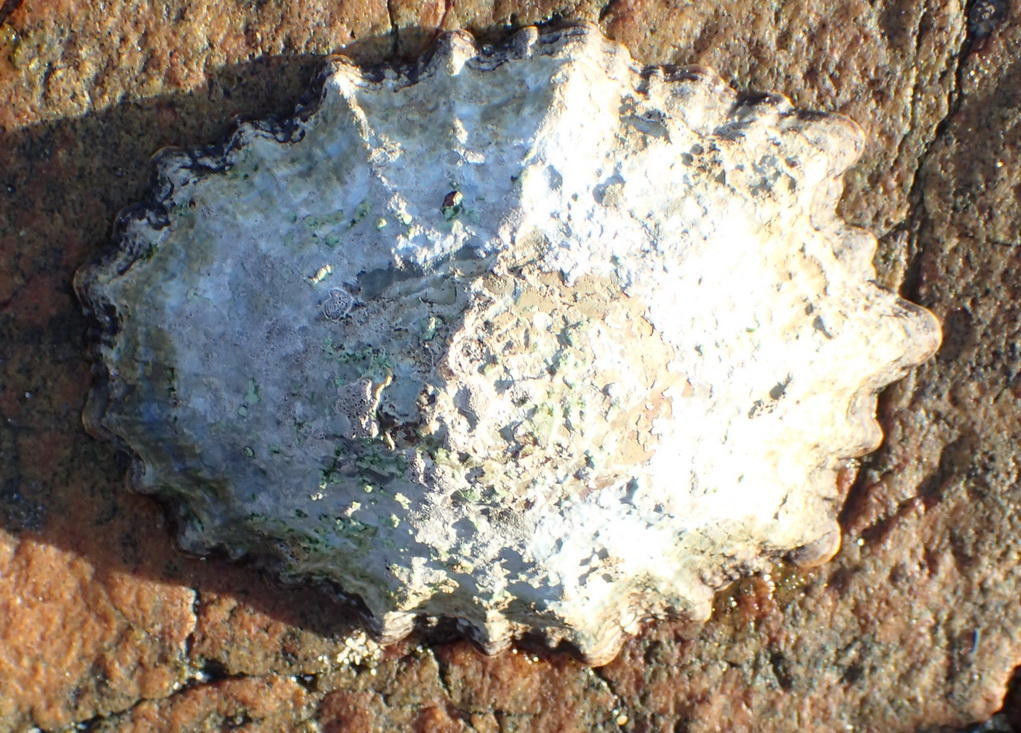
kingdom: Animalia
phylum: Mollusca
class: Gastropoda
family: Patellidae
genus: Cymbula
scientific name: Cymbula oculus
